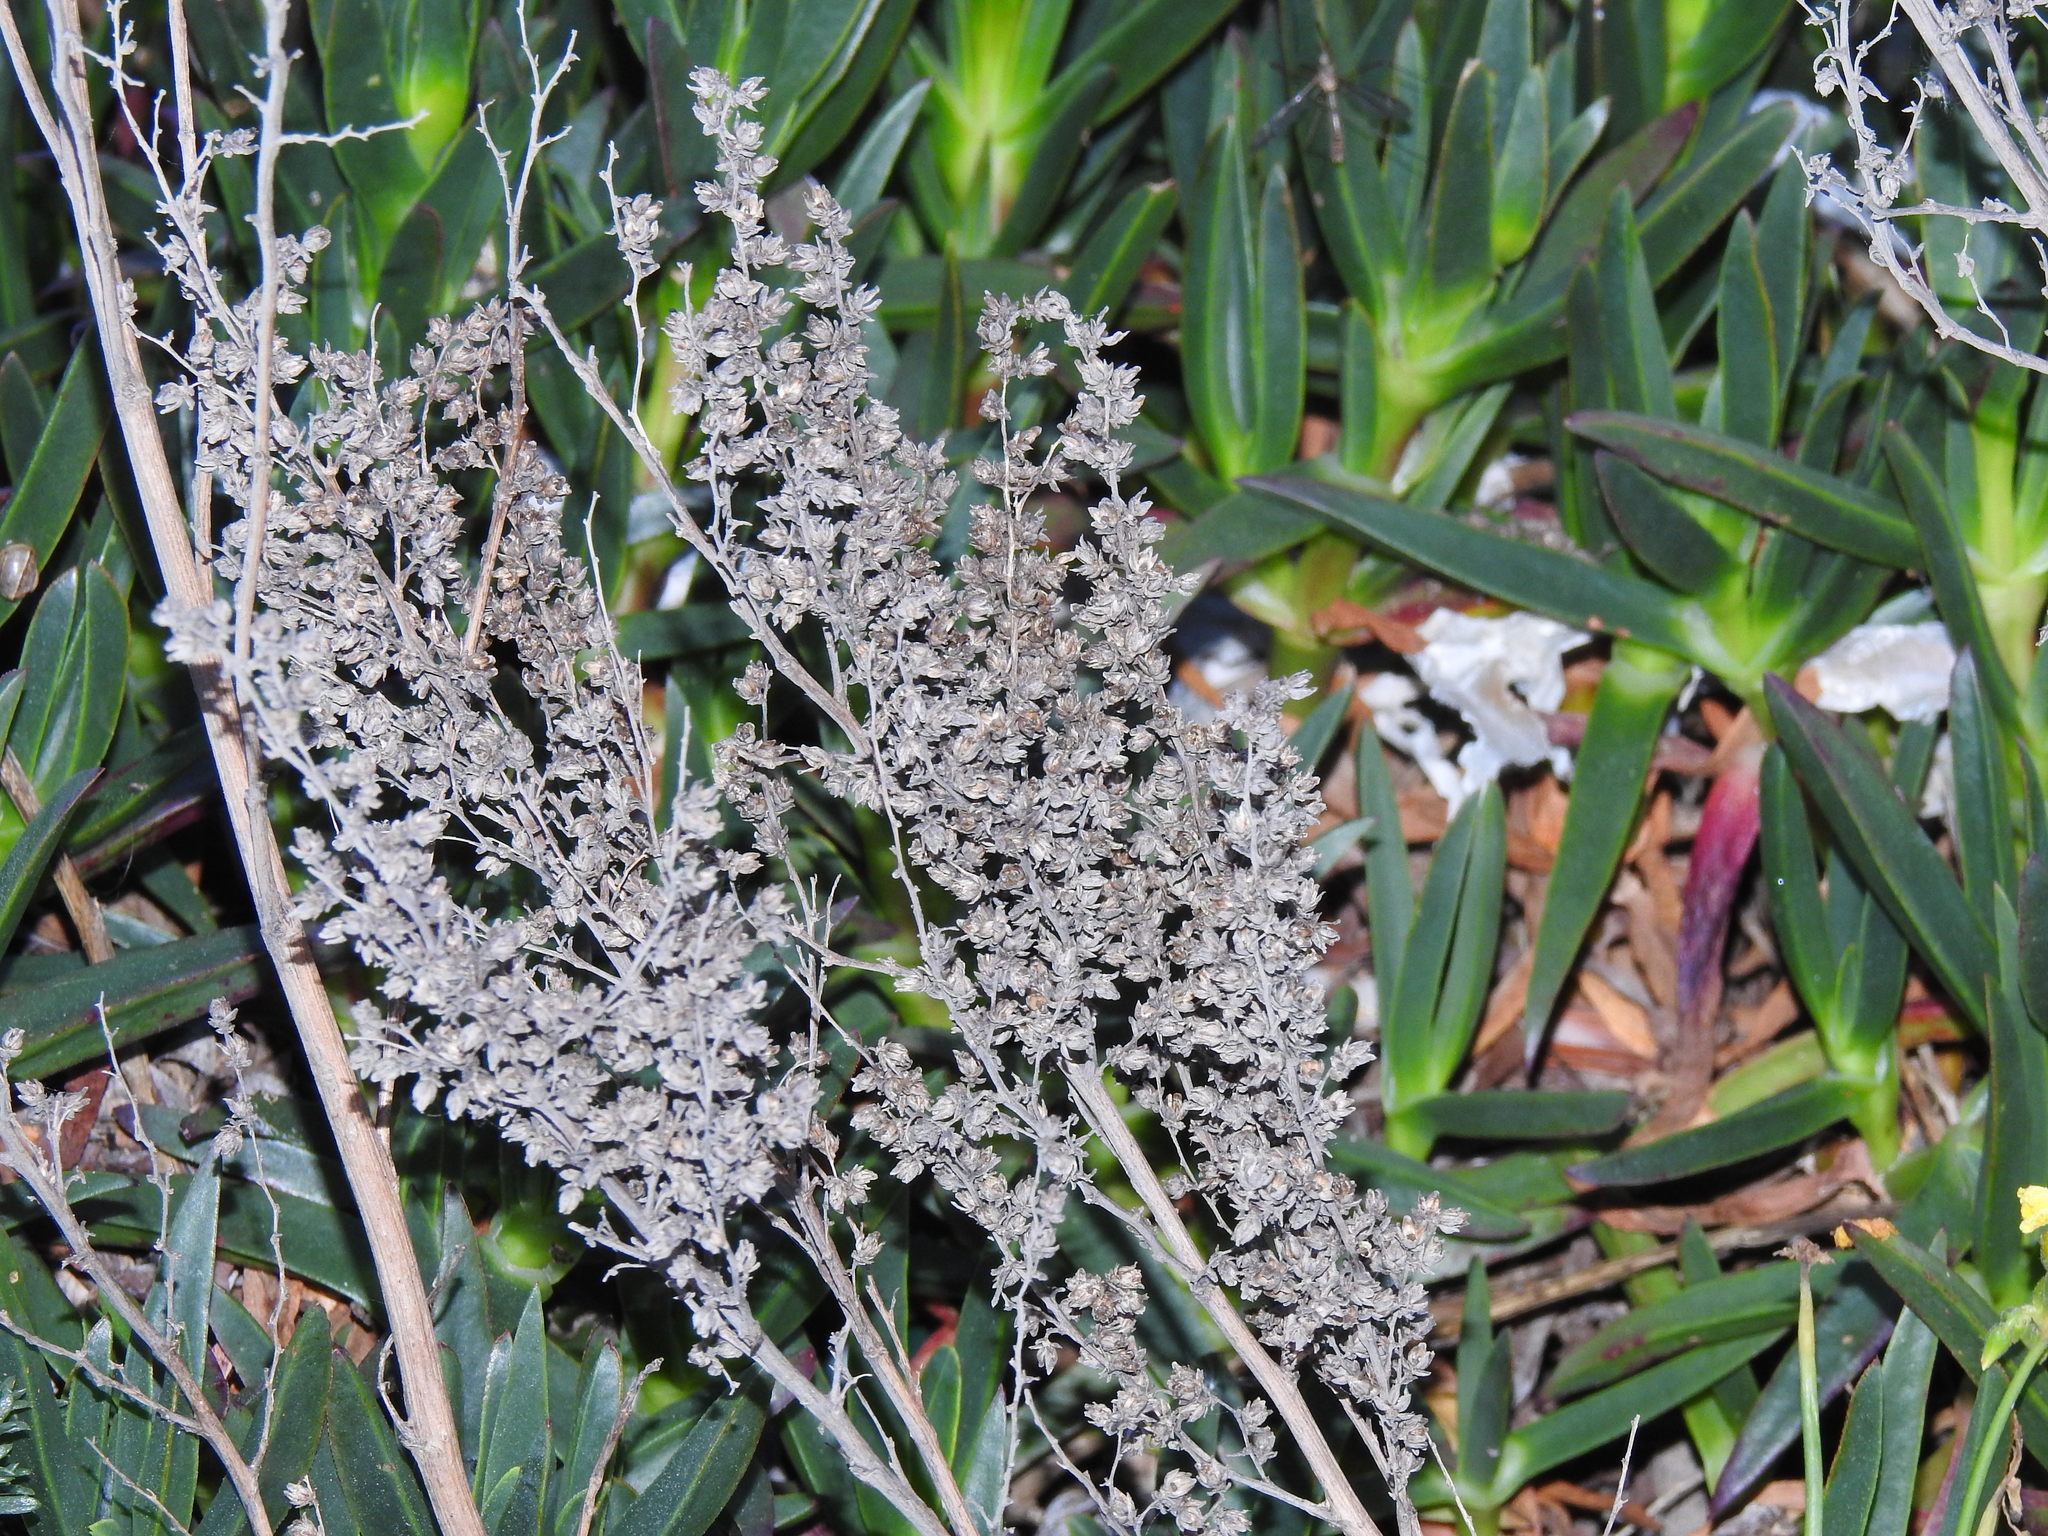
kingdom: Plantae
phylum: Tracheophyta
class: Magnoliopsida
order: Asterales
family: Asteraceae
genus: Artemisia
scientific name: Artemisia crithmifolia
